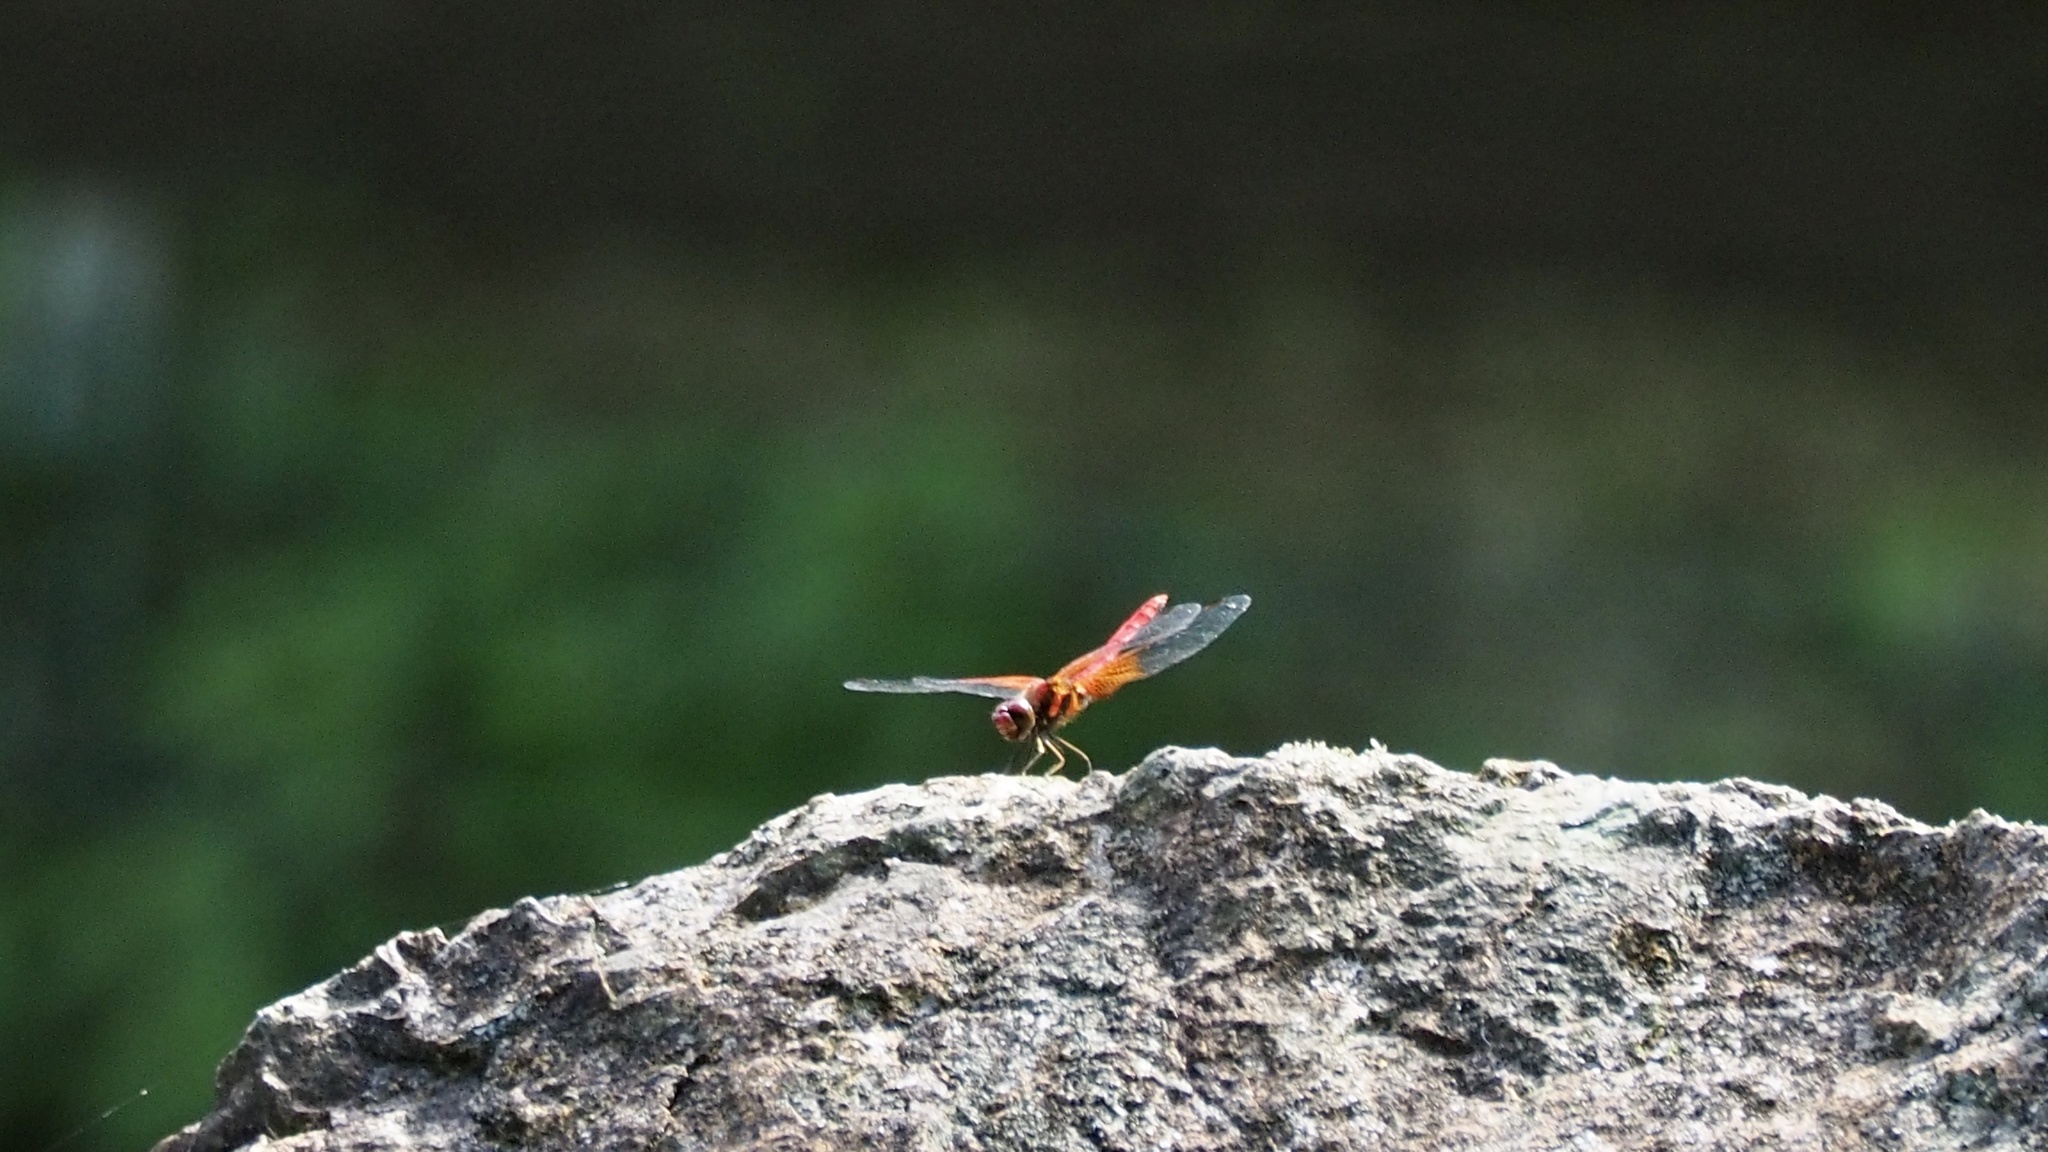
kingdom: Animalia
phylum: Arthropoda
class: Insecta
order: Odonata
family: Libellulidae
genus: Sympetrum
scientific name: Sympetrum speciosum
